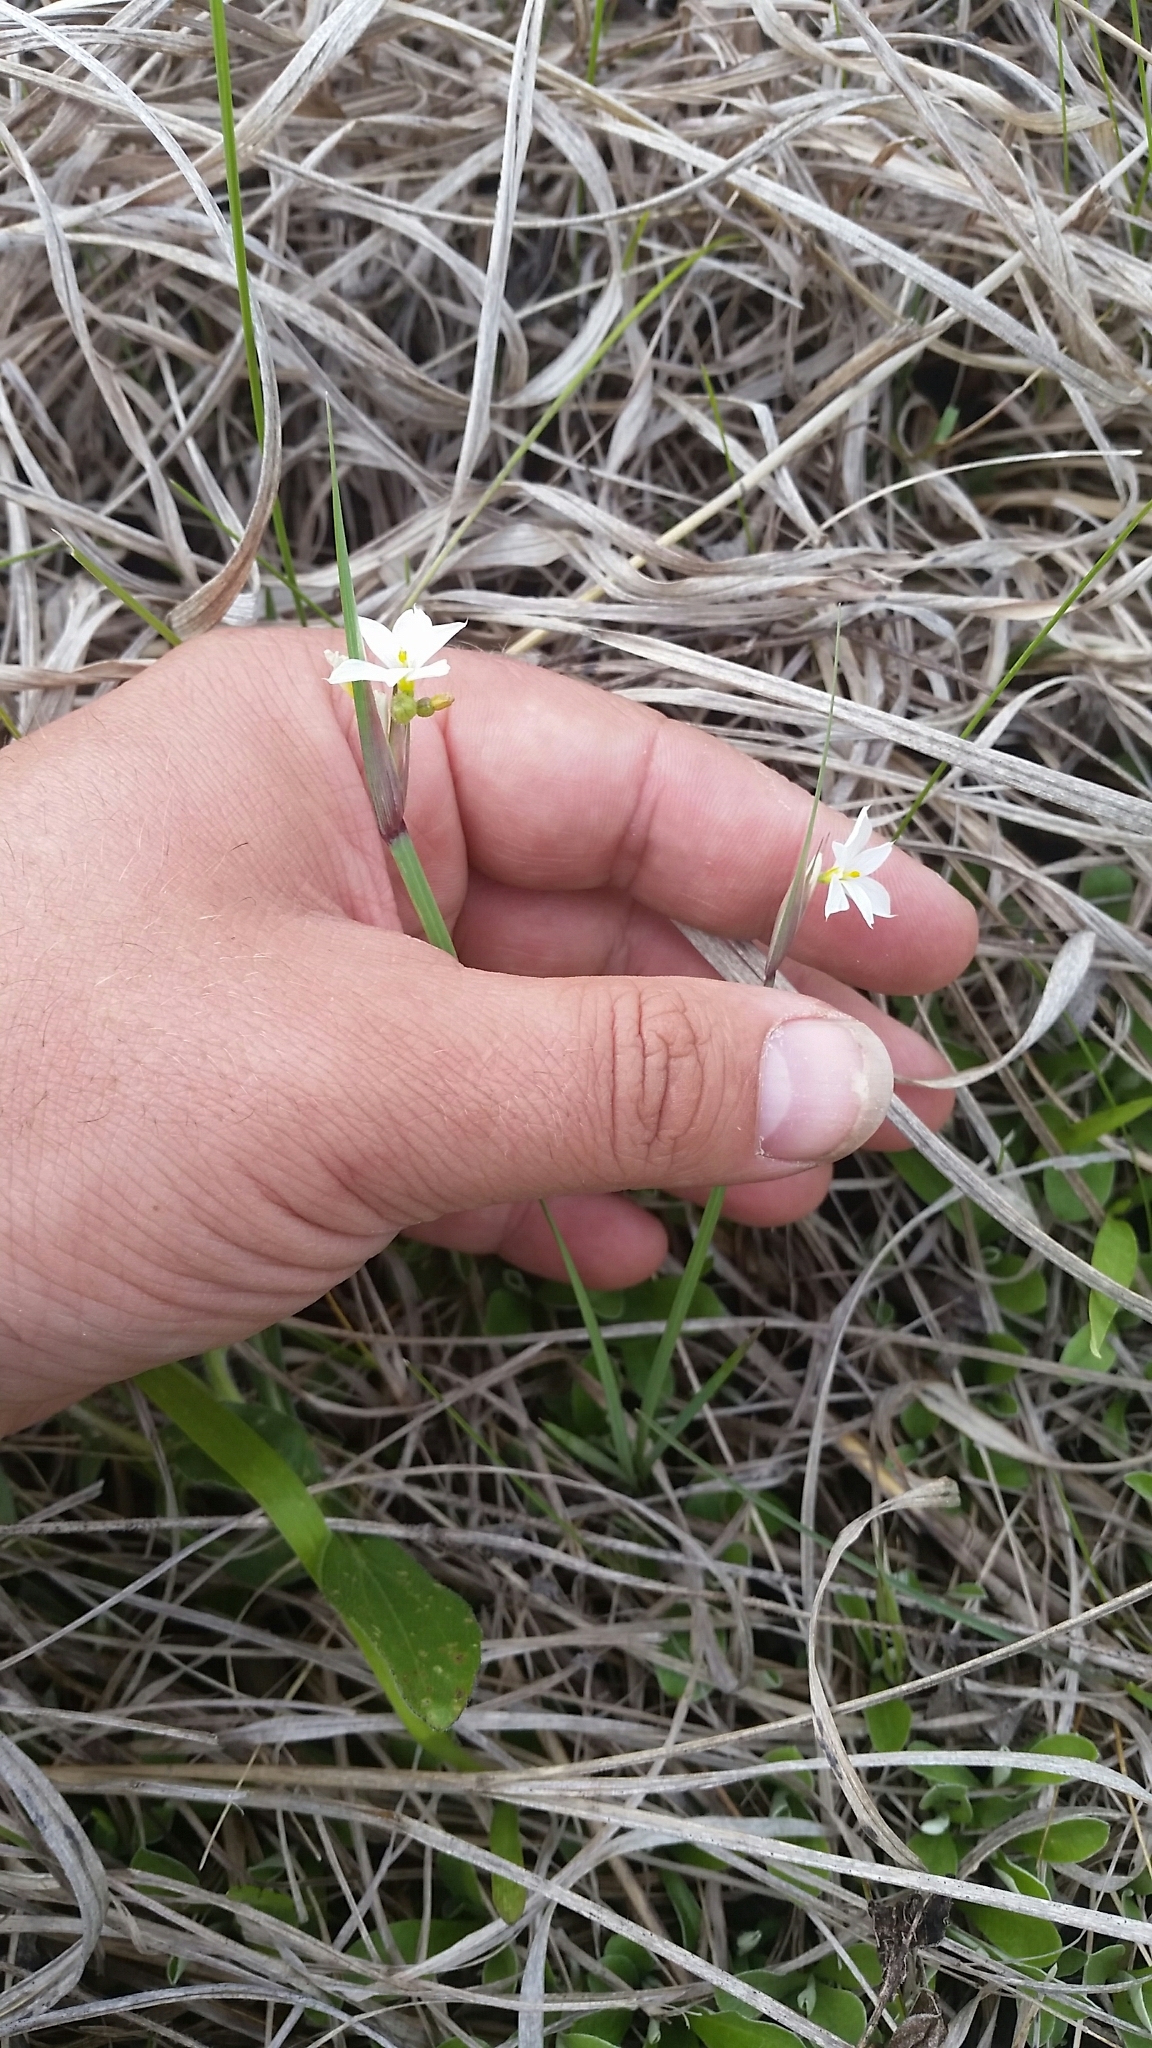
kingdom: Plantae
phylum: Tracheophyta
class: Liliopsida
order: Asparagales
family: Iridaceae
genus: Sisyrinchium
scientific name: Sisyrinchium albidum
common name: Pale blue-eyed-grass
